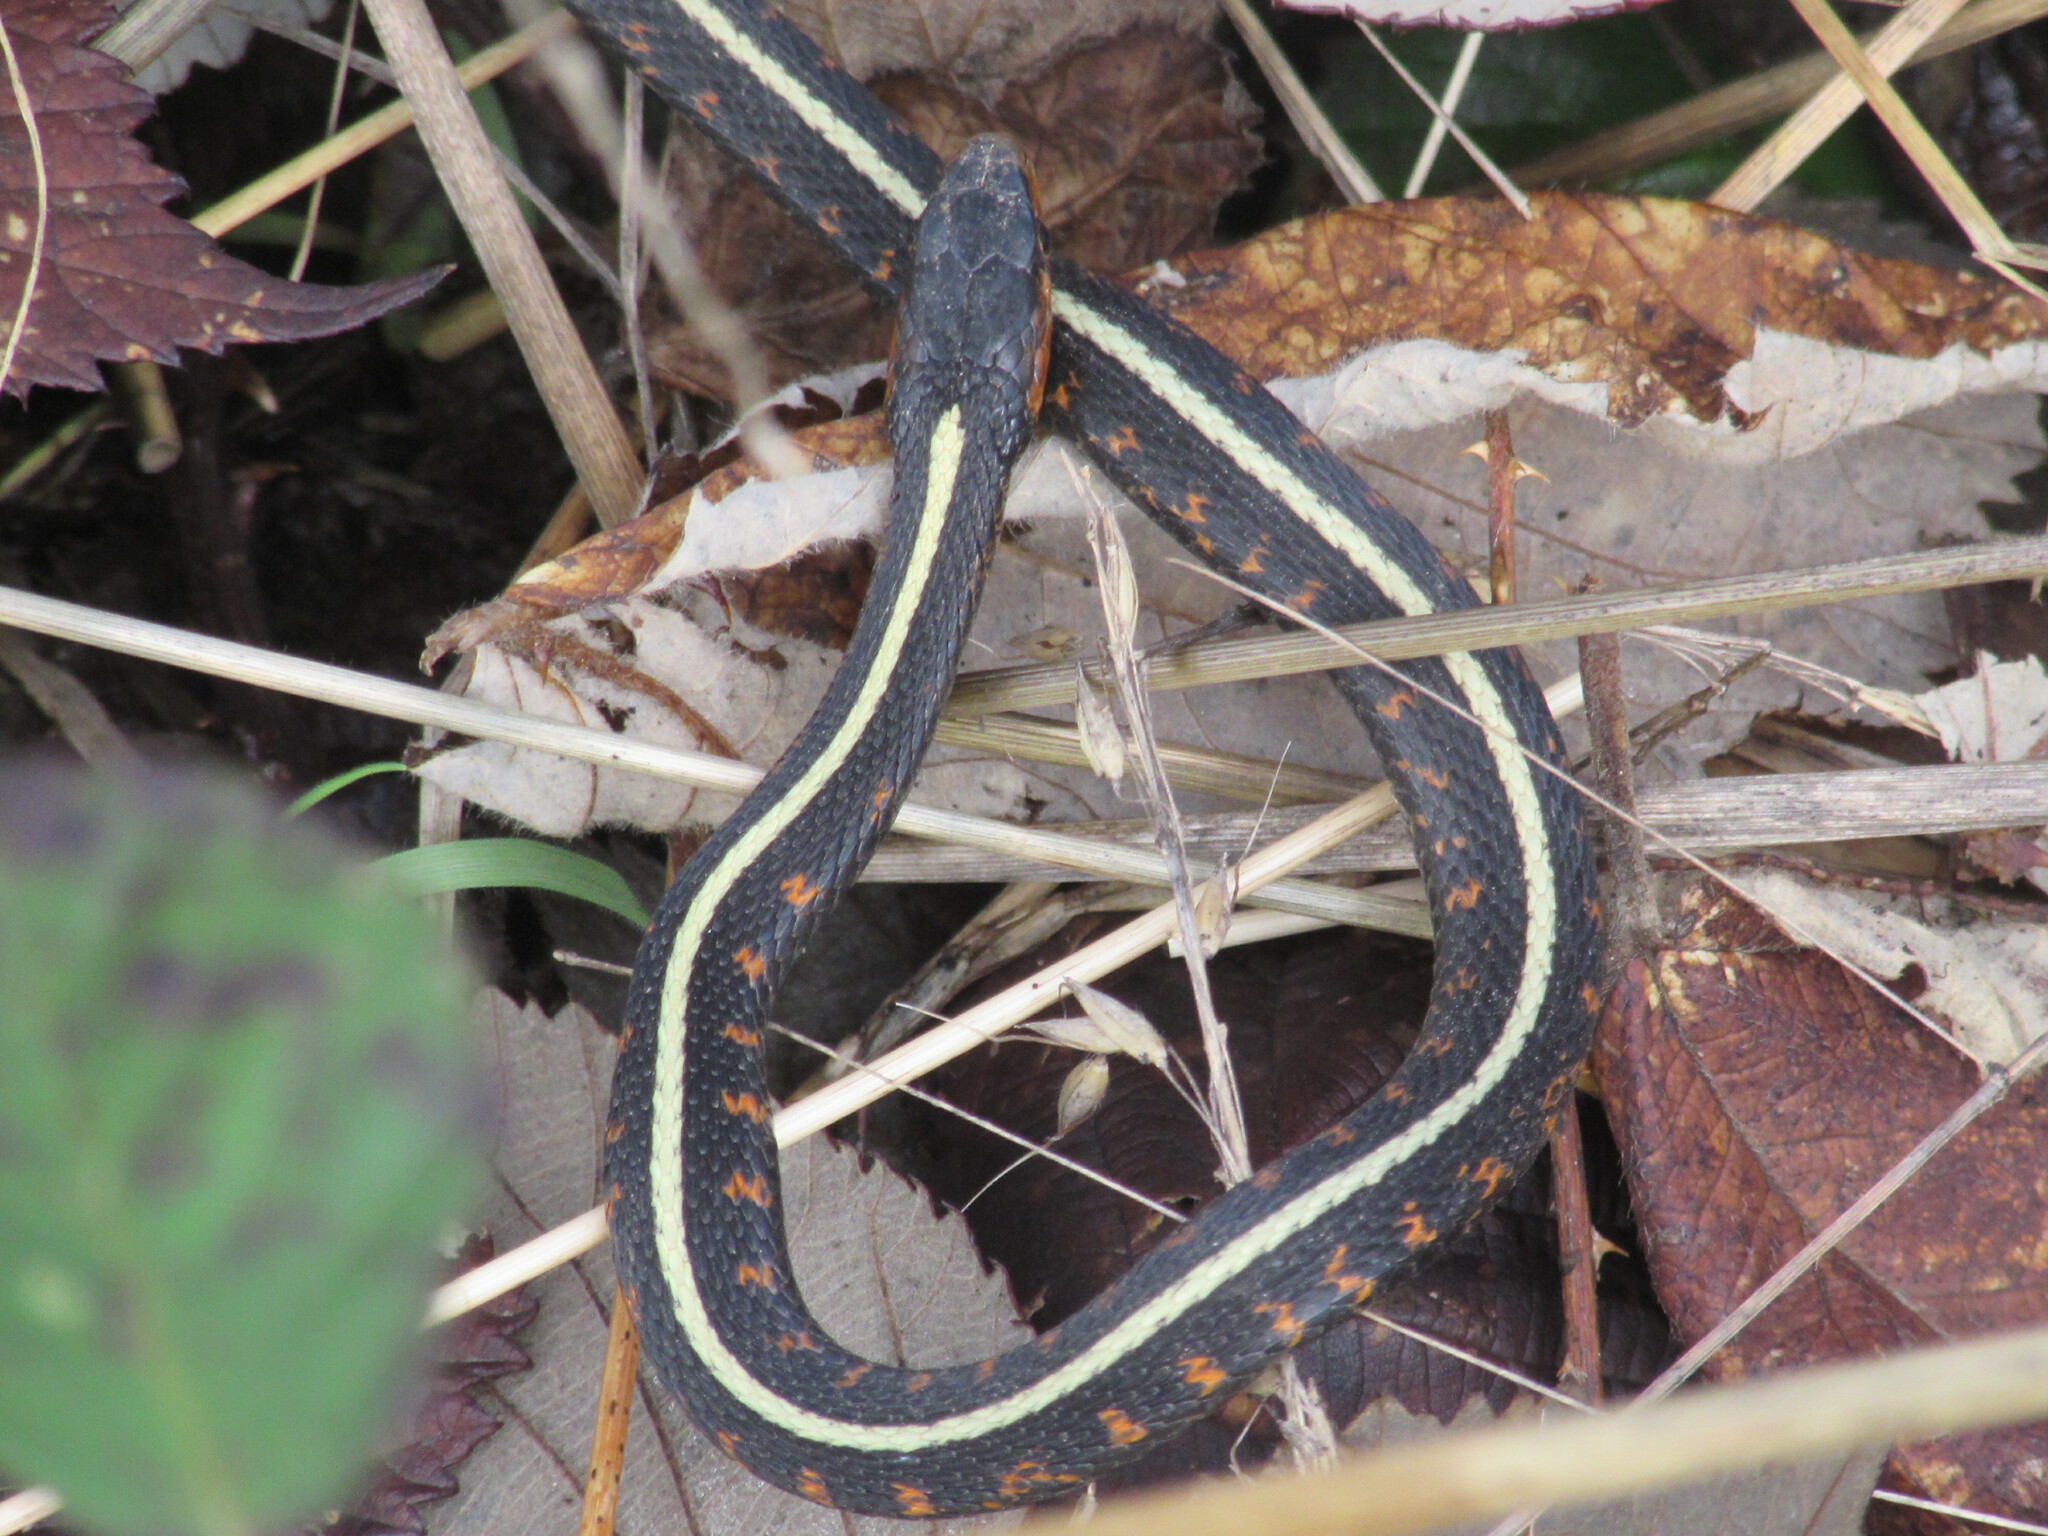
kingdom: Animalia
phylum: Chordata
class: Squamata
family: Colubridae
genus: Thamnophis
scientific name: Thamnophis sirtalis
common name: Common garter snake
